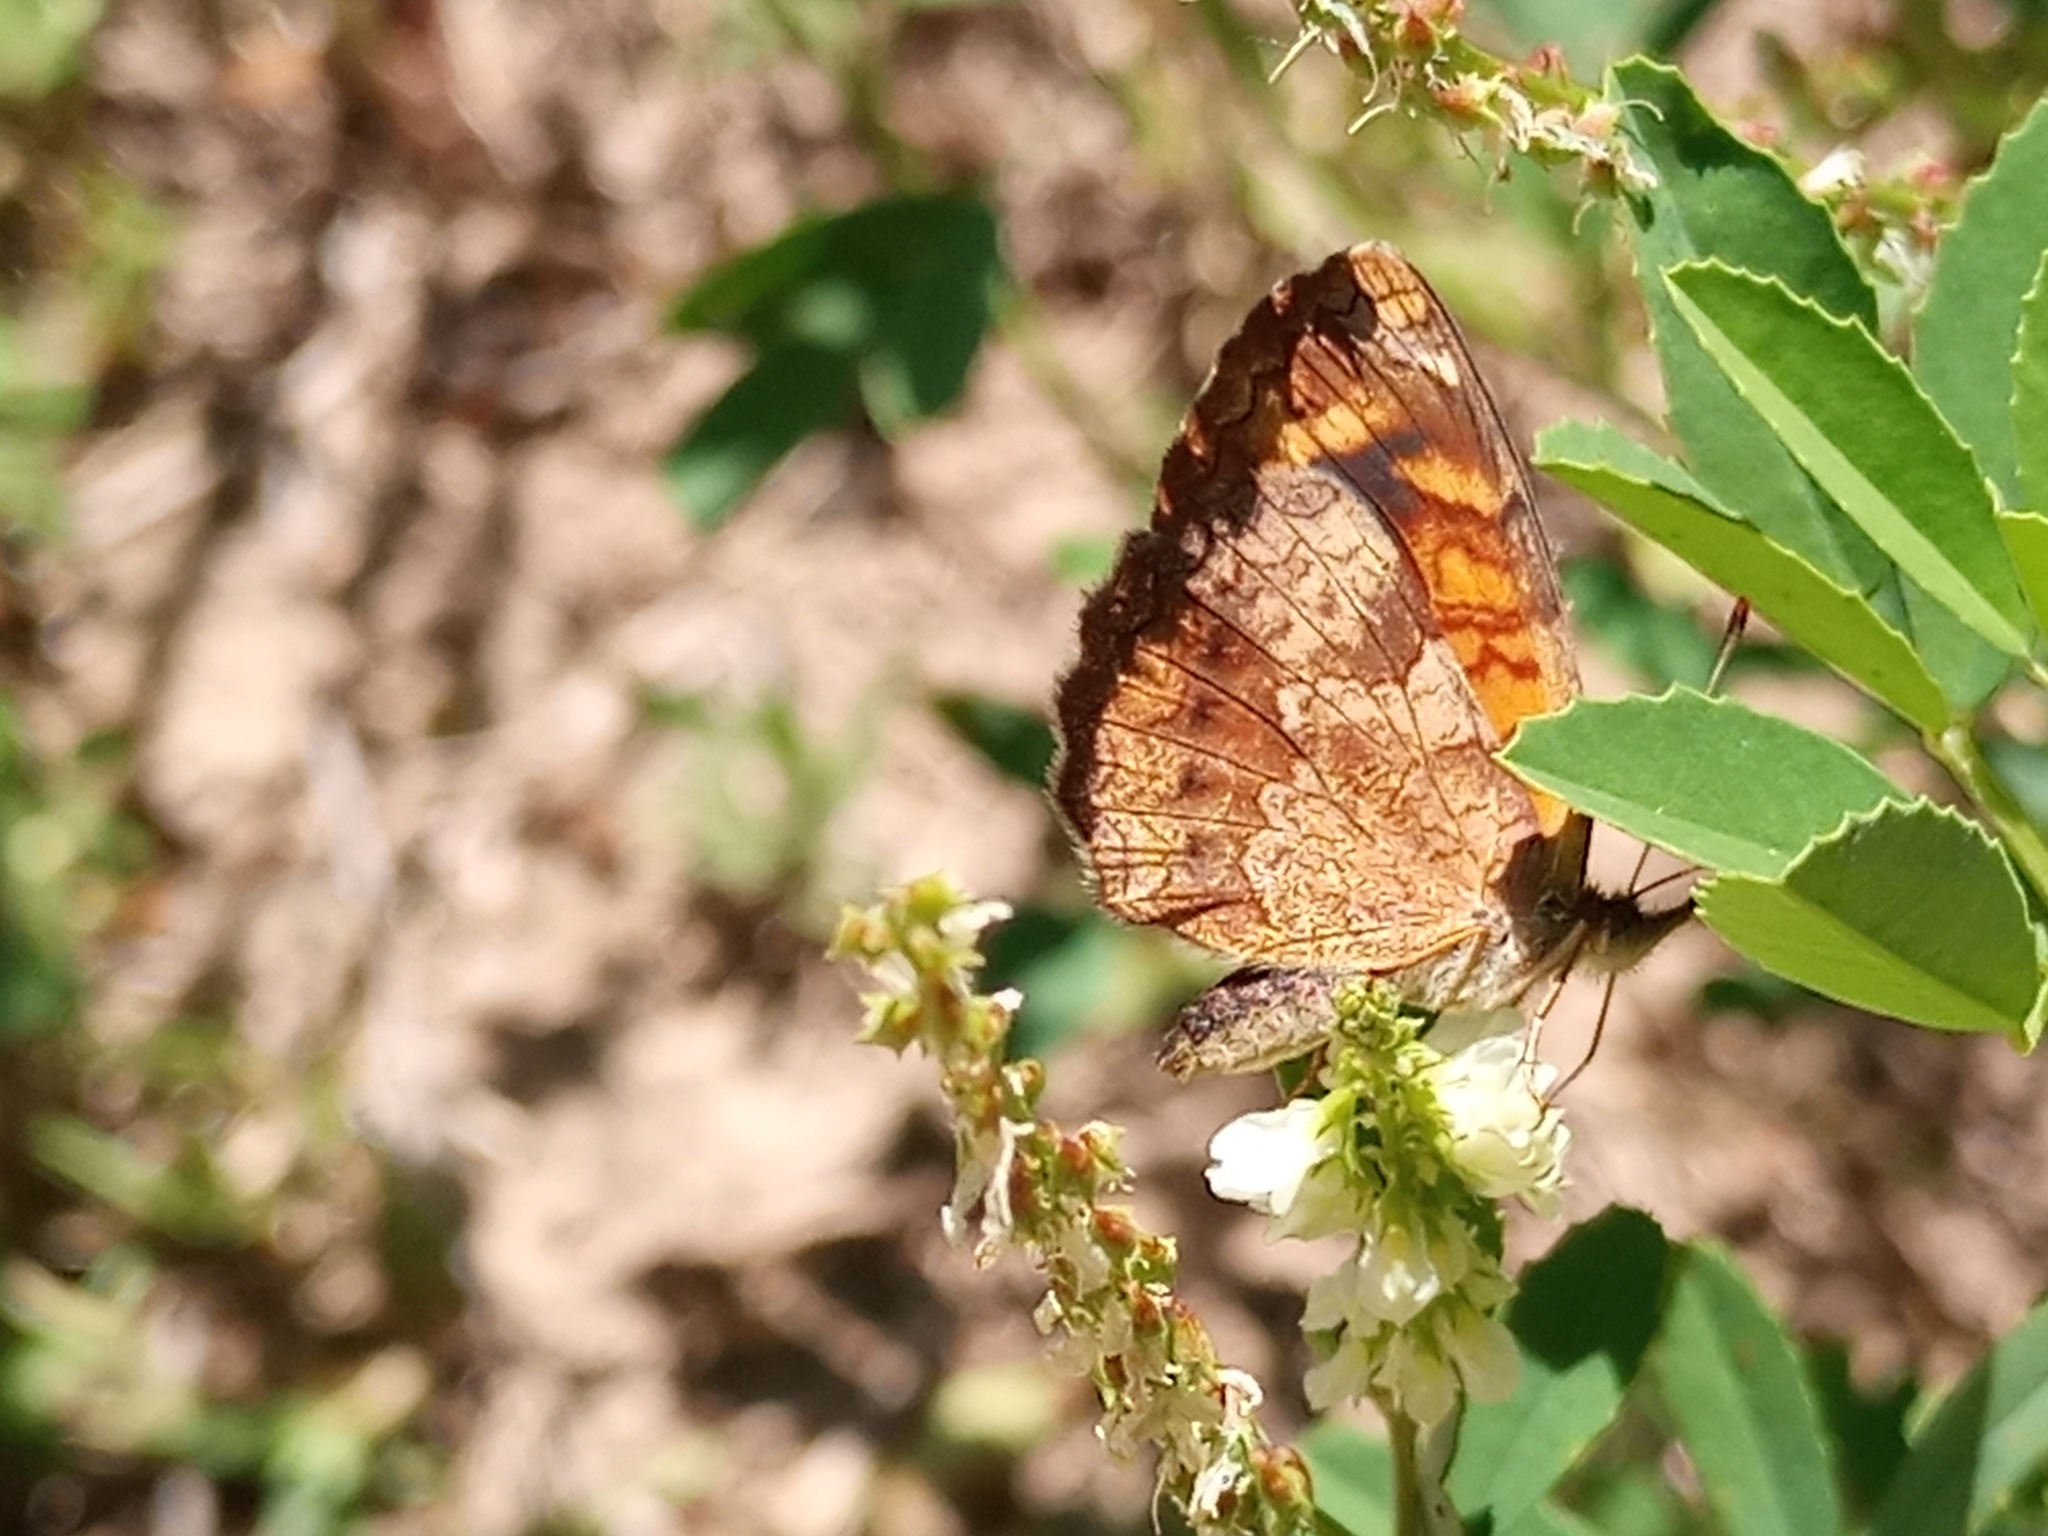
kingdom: Animalia
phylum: Arthropoda
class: Insecta
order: Lepidoptera
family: Nymphalidae
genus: Ortilia
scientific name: Ortilia velica
